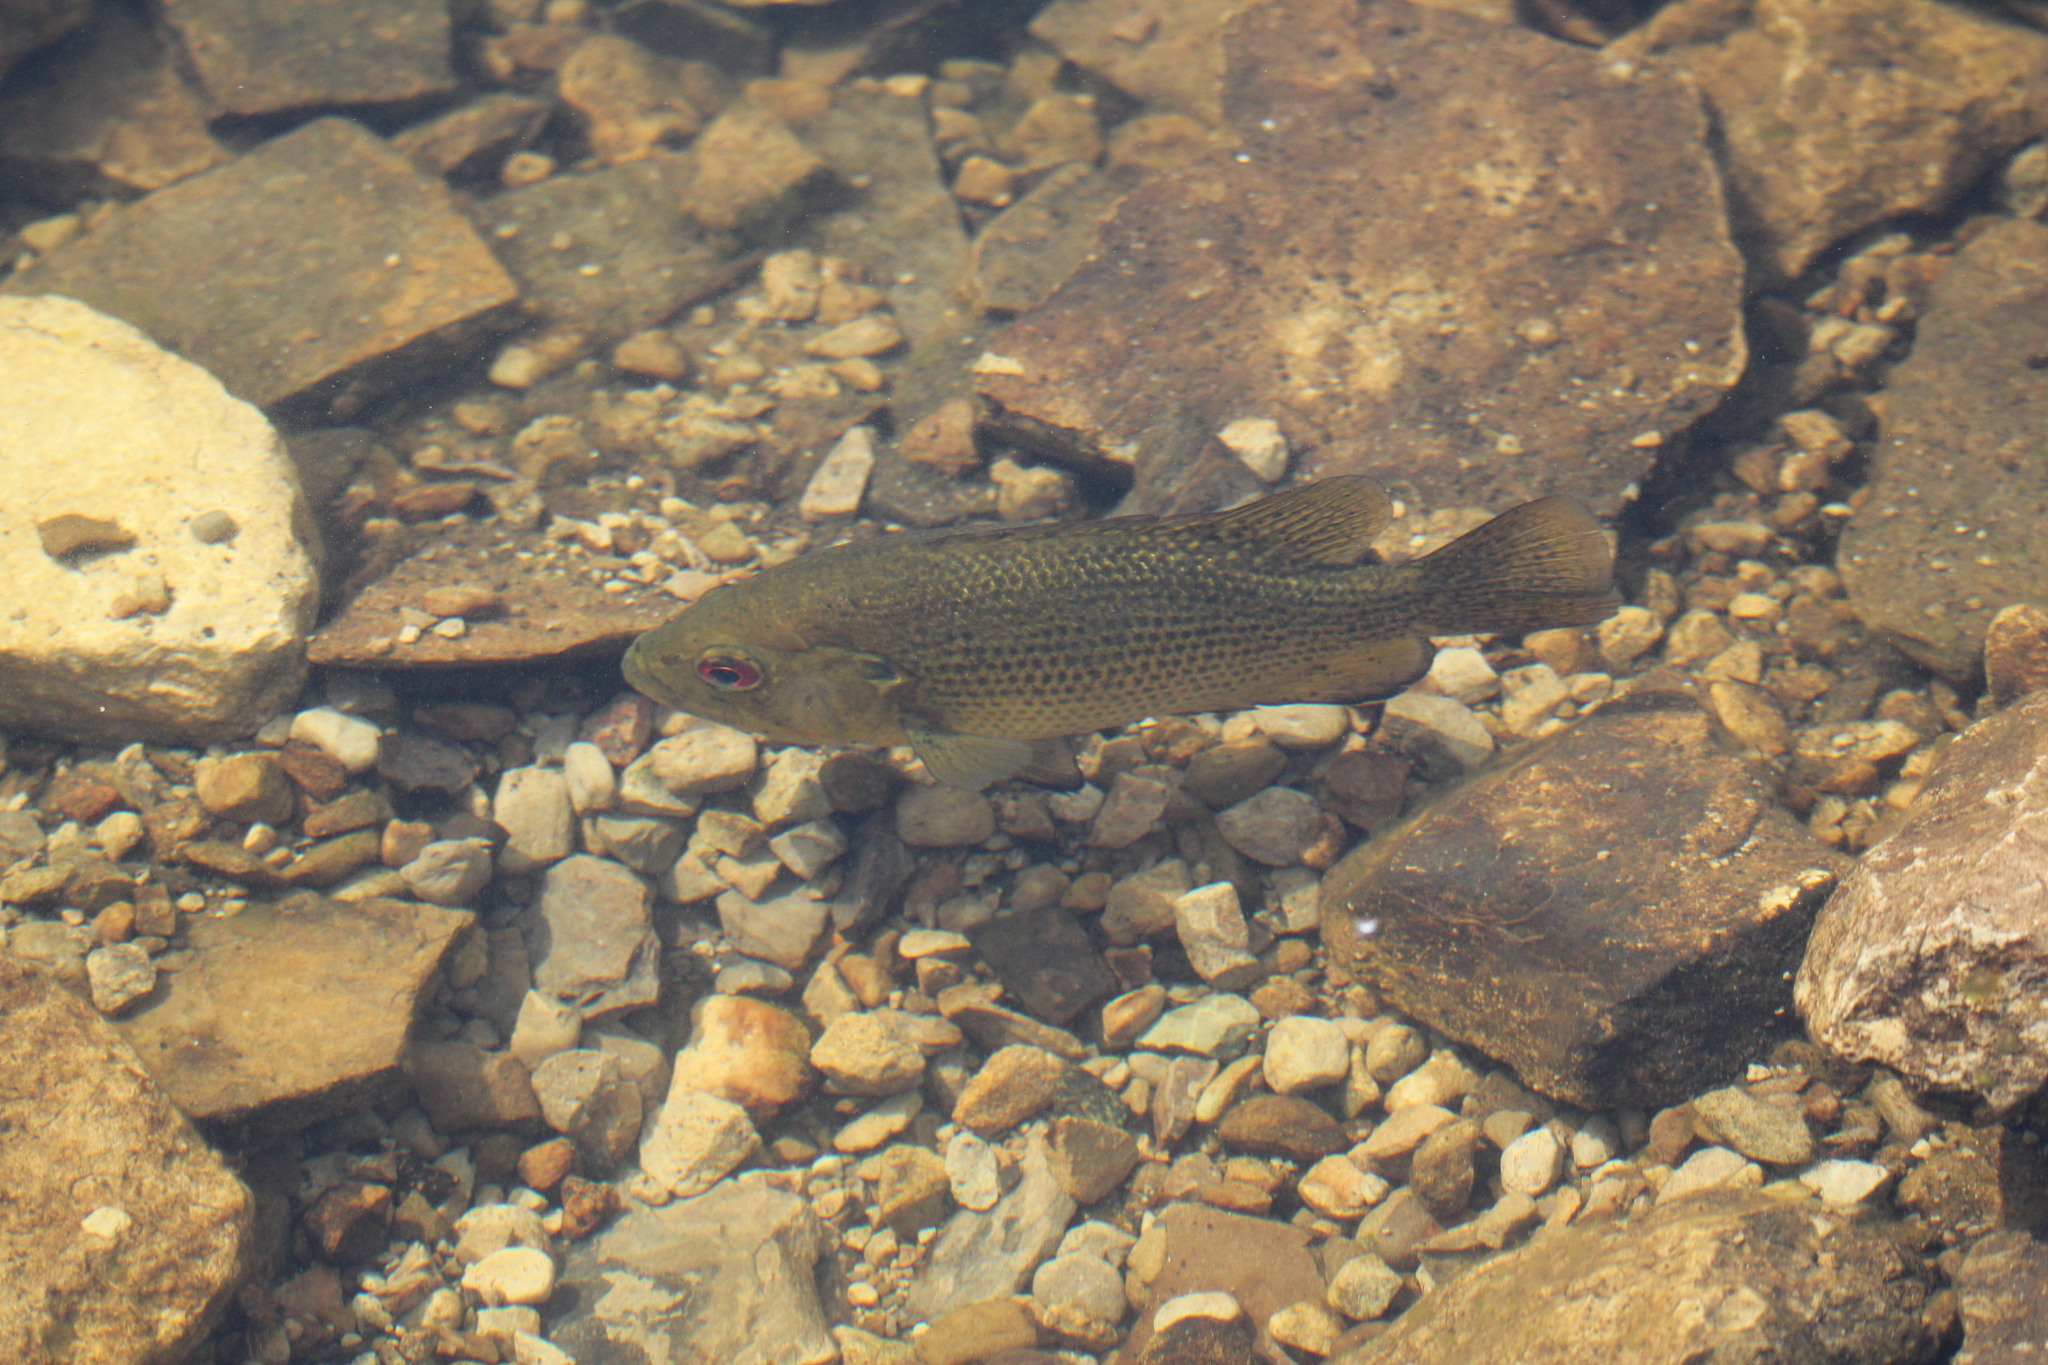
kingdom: Animalia
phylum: Chordata
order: Perciformes
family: Centrarchidae
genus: Ambloplites
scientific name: Ambloplites rupestris
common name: Rock bass
